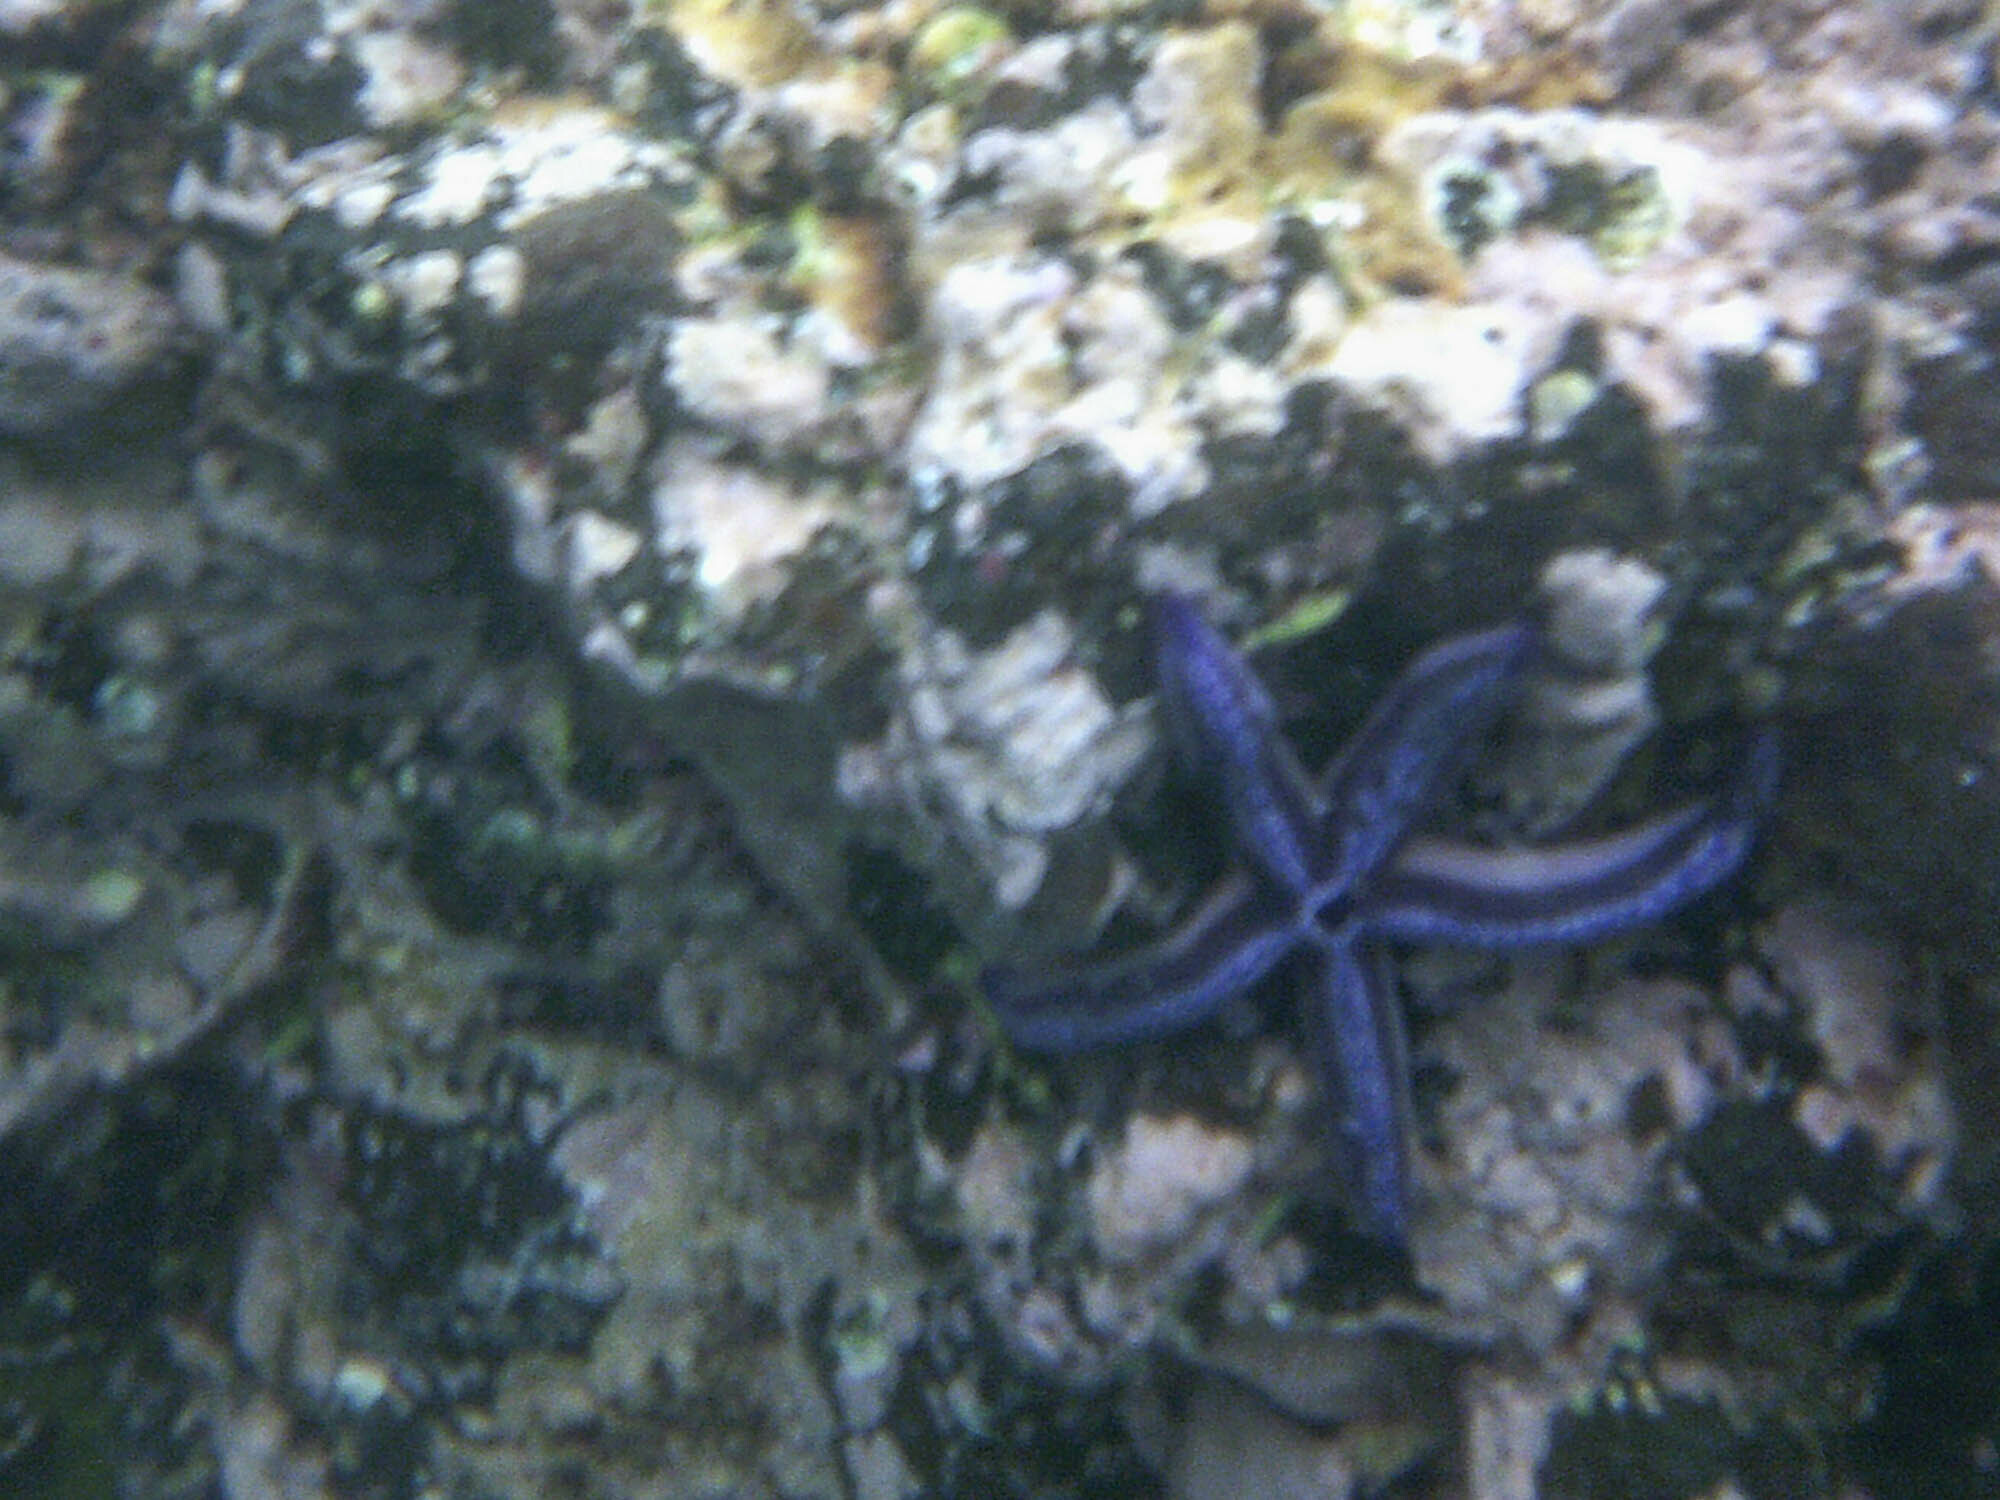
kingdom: Animalia
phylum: Echinodermata
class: Asteroidea
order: Valvatida
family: Ophidiasteridae
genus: Phataria
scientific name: Phataria unifascialis
